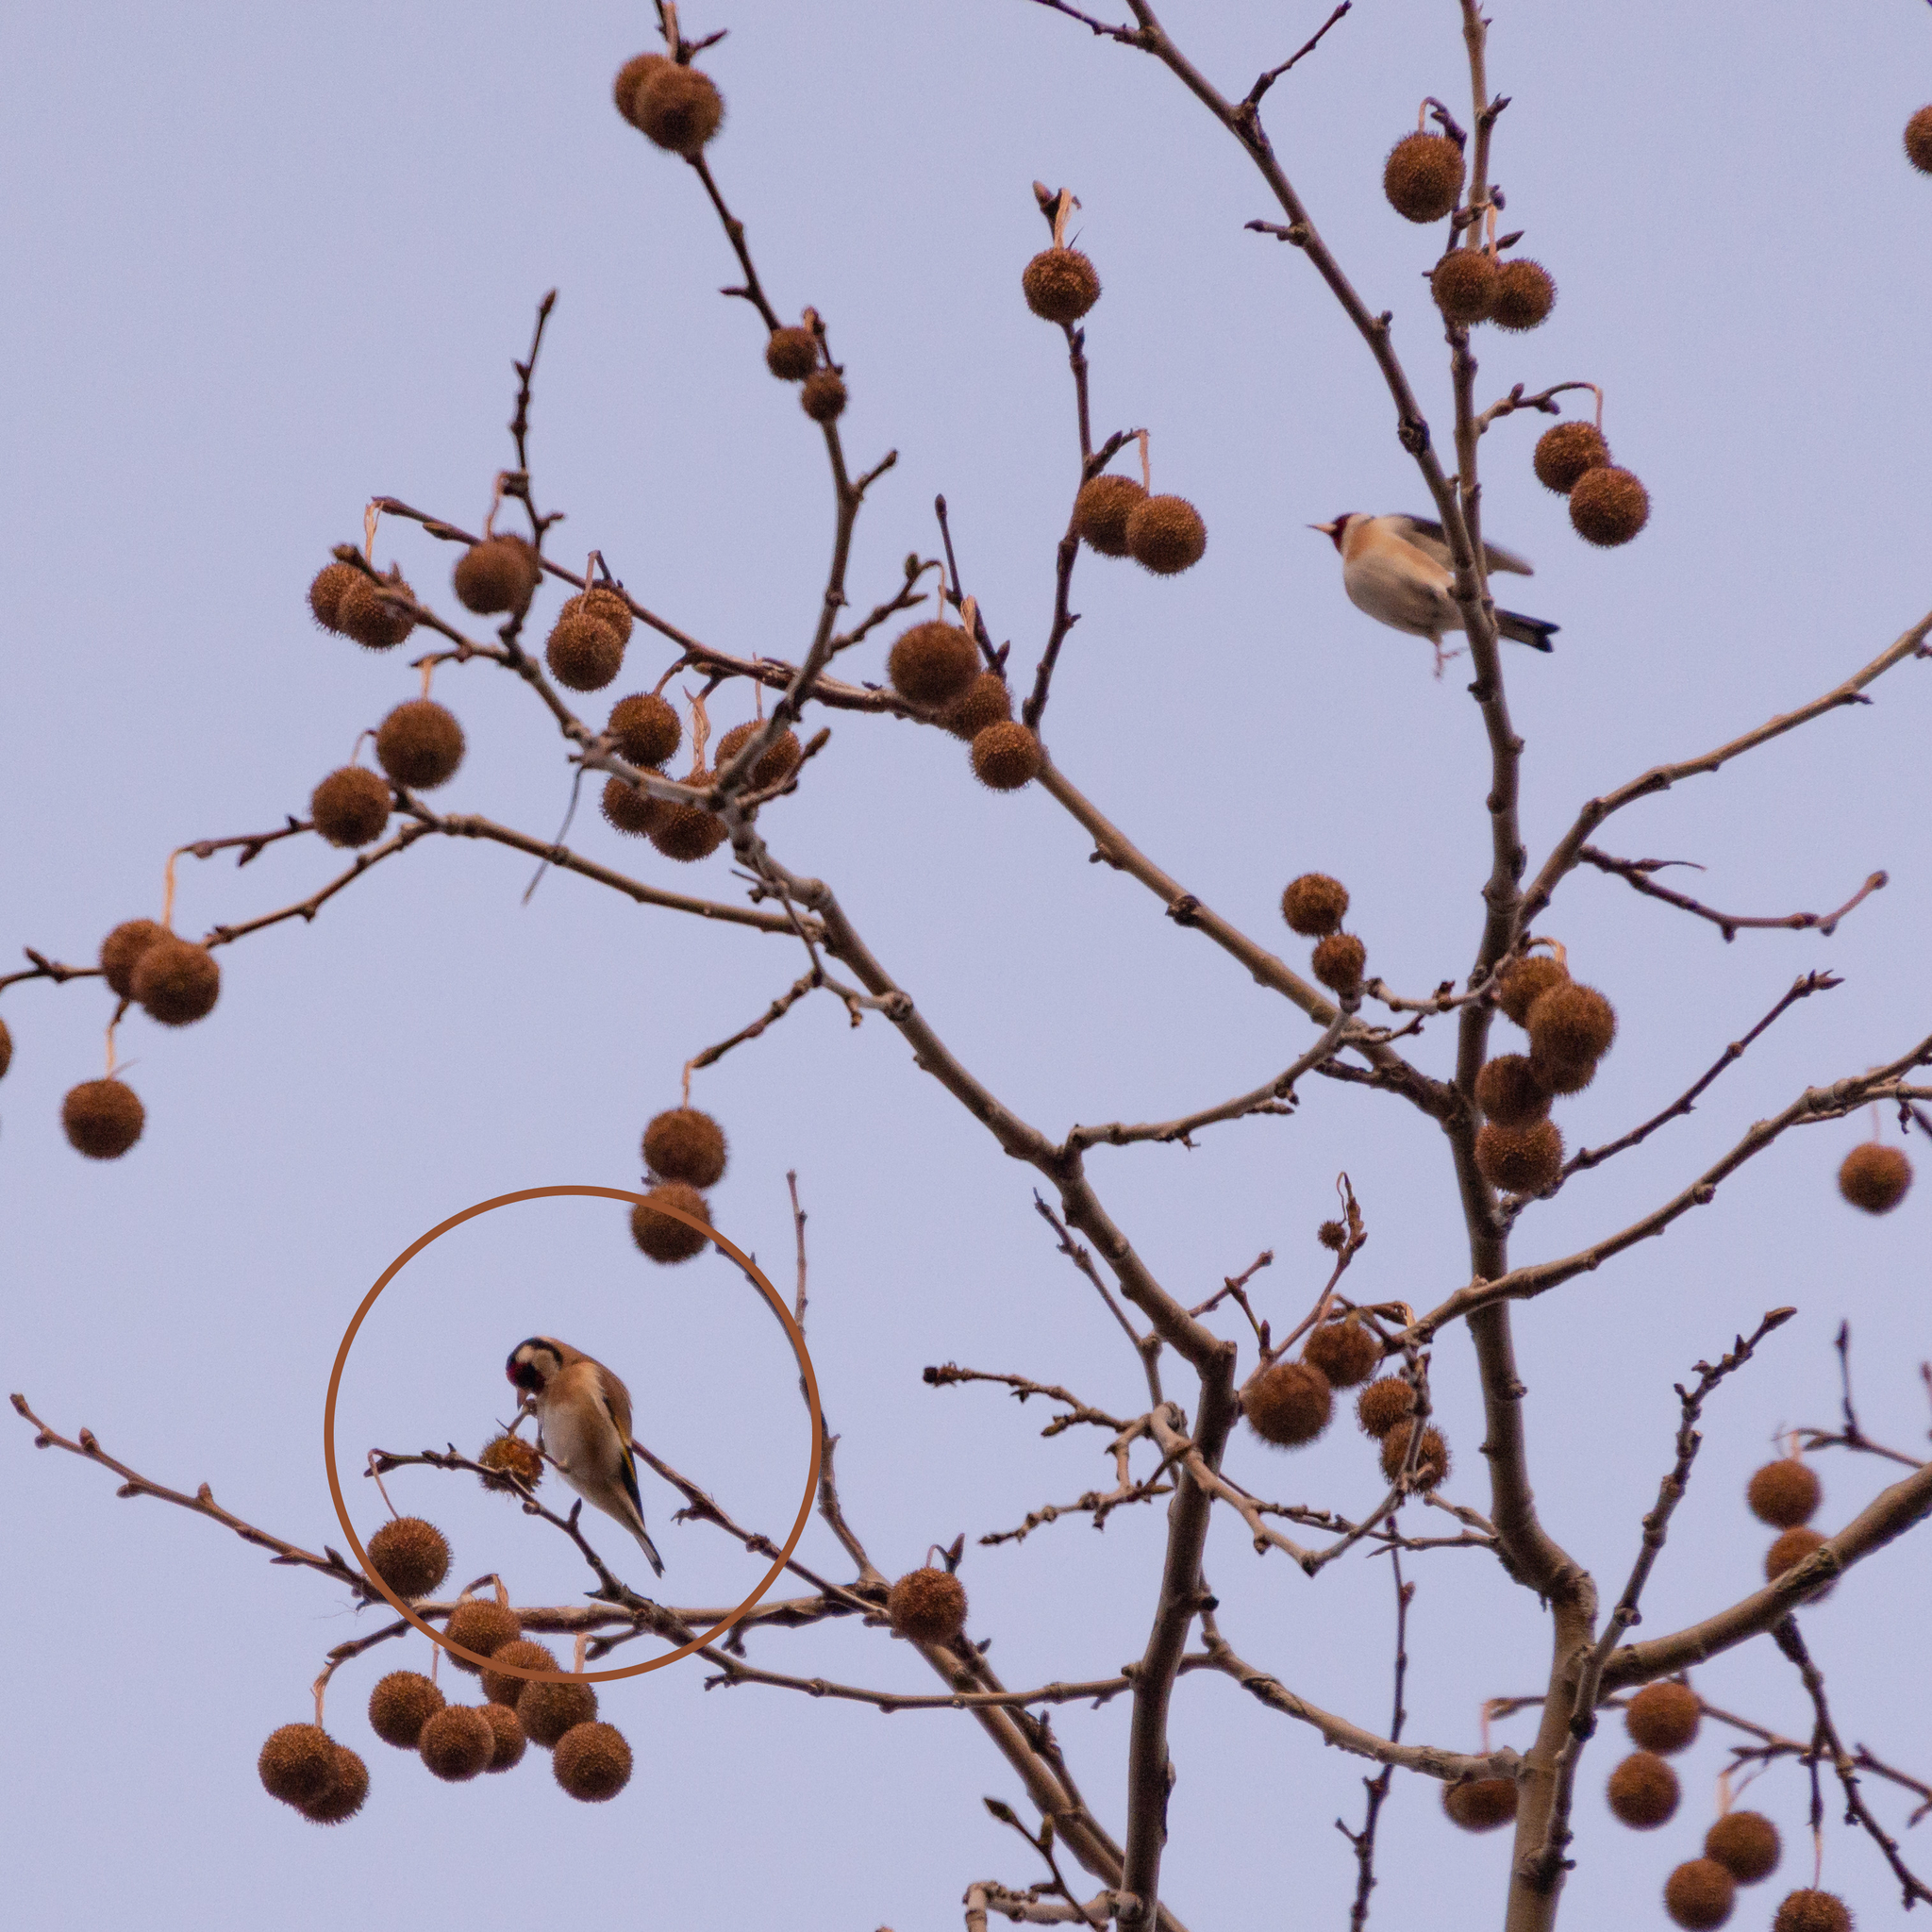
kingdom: Animalia
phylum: Chordata
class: Aves
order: Passeriformes
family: Fringillidae
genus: Carduelis
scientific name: Carduelis carduelis
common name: European goldfinch
